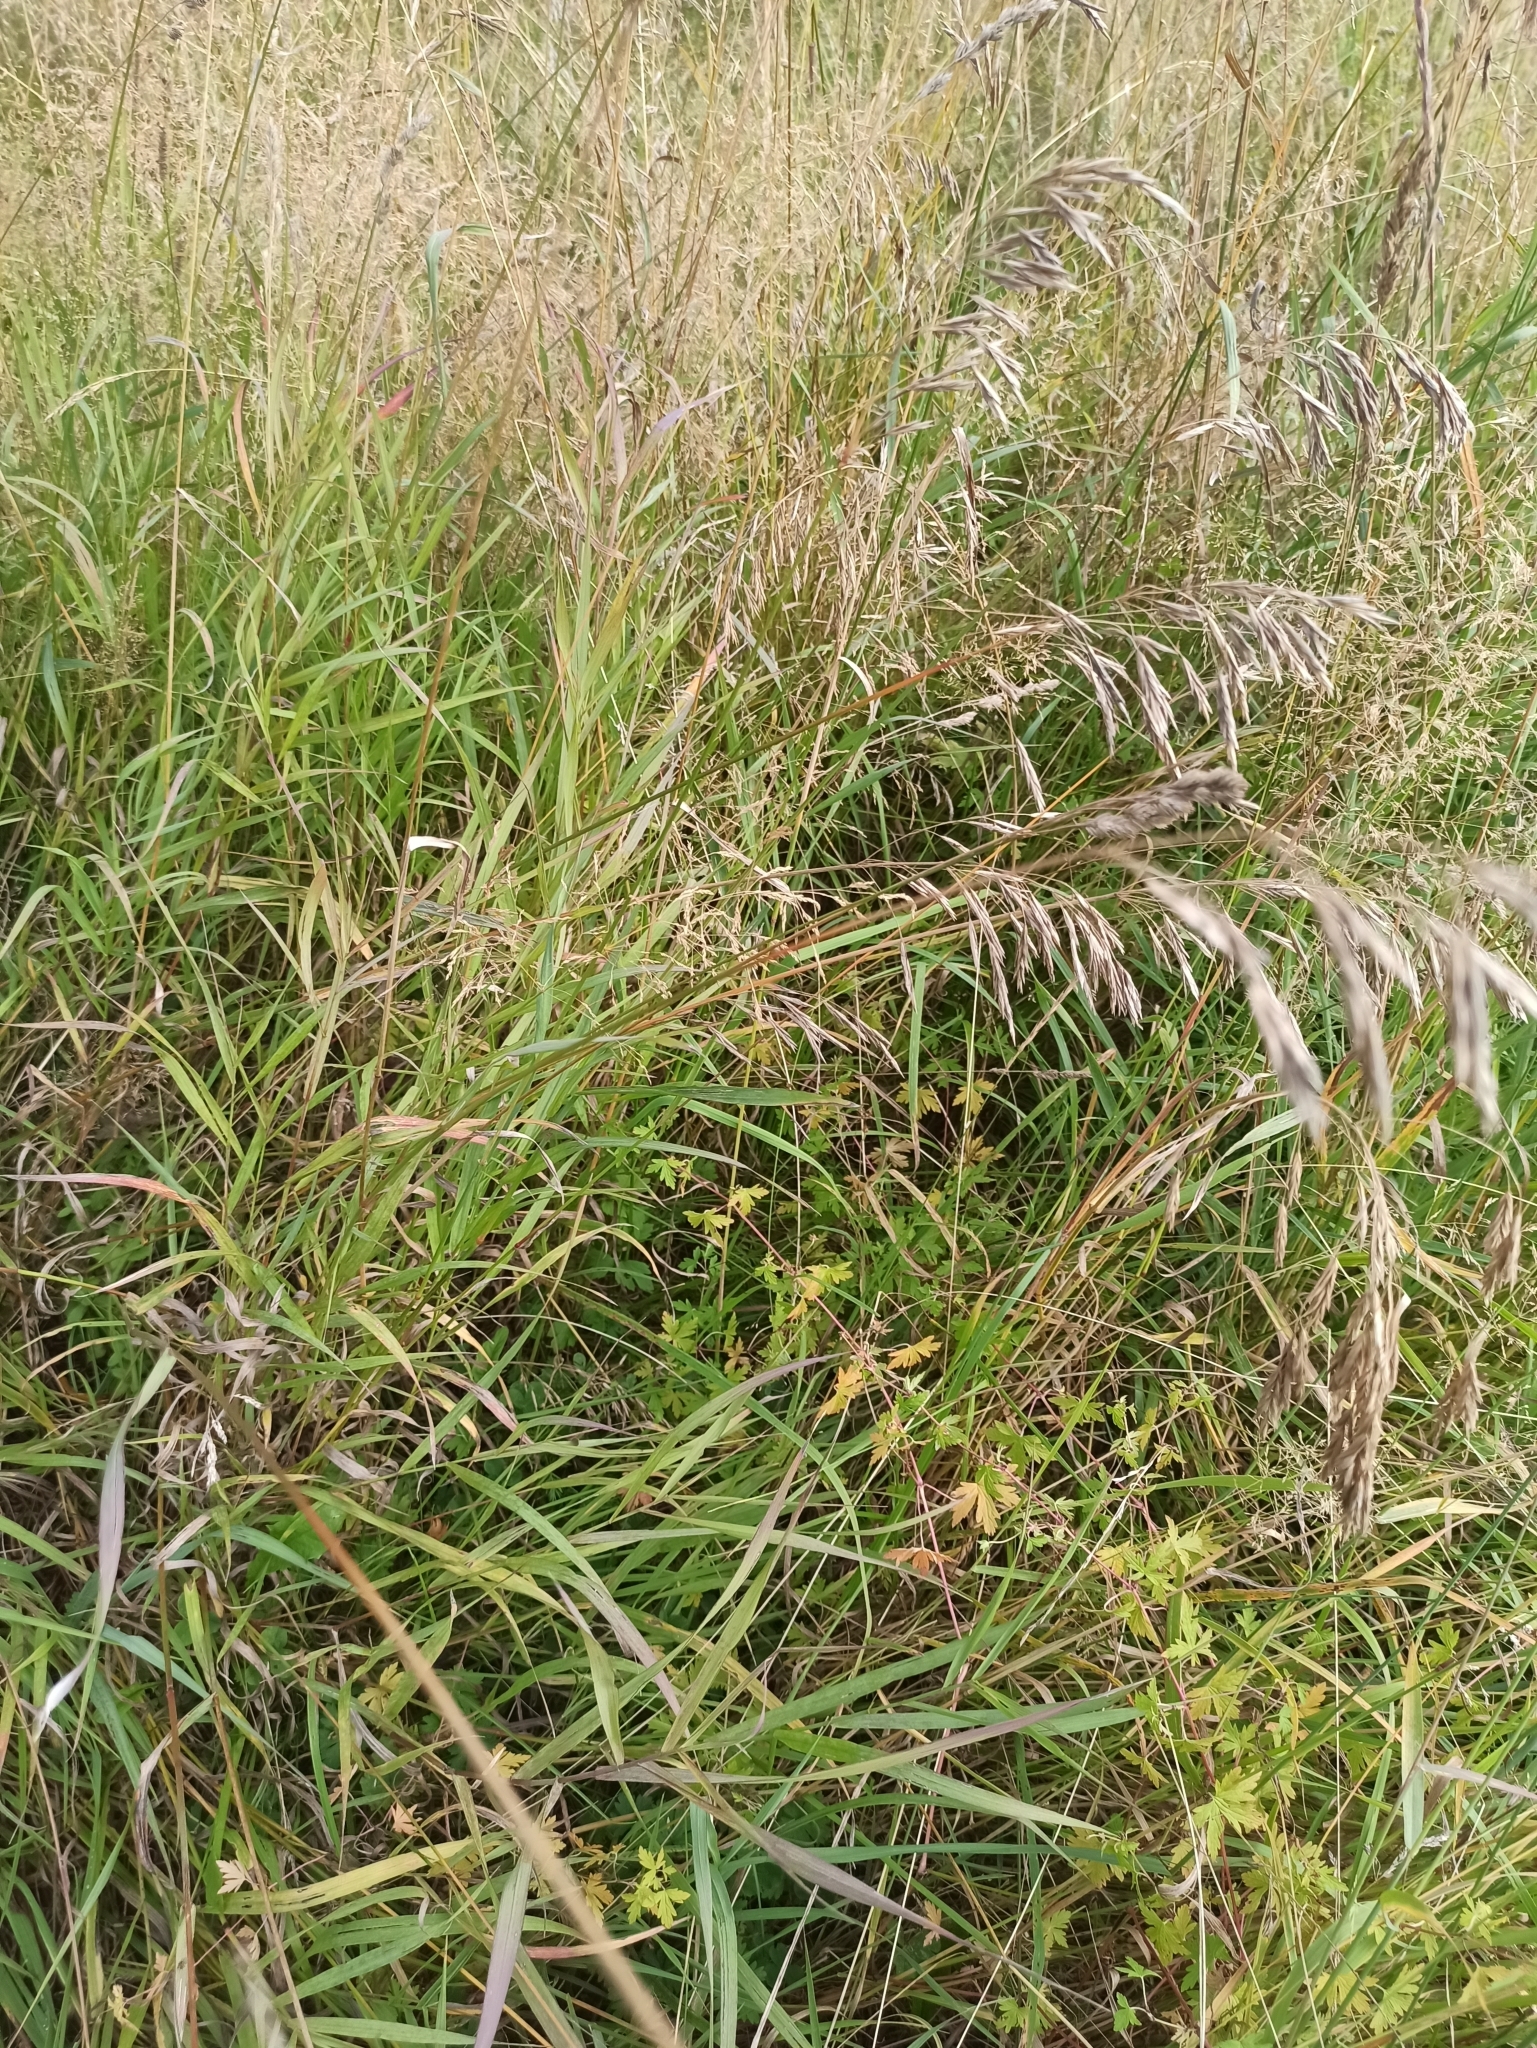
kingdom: Plantae
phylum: Tracheophyta
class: Liliopsida
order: Poales
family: Poaceae
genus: Bromus
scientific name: Bromus inermis
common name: Smooth brome
